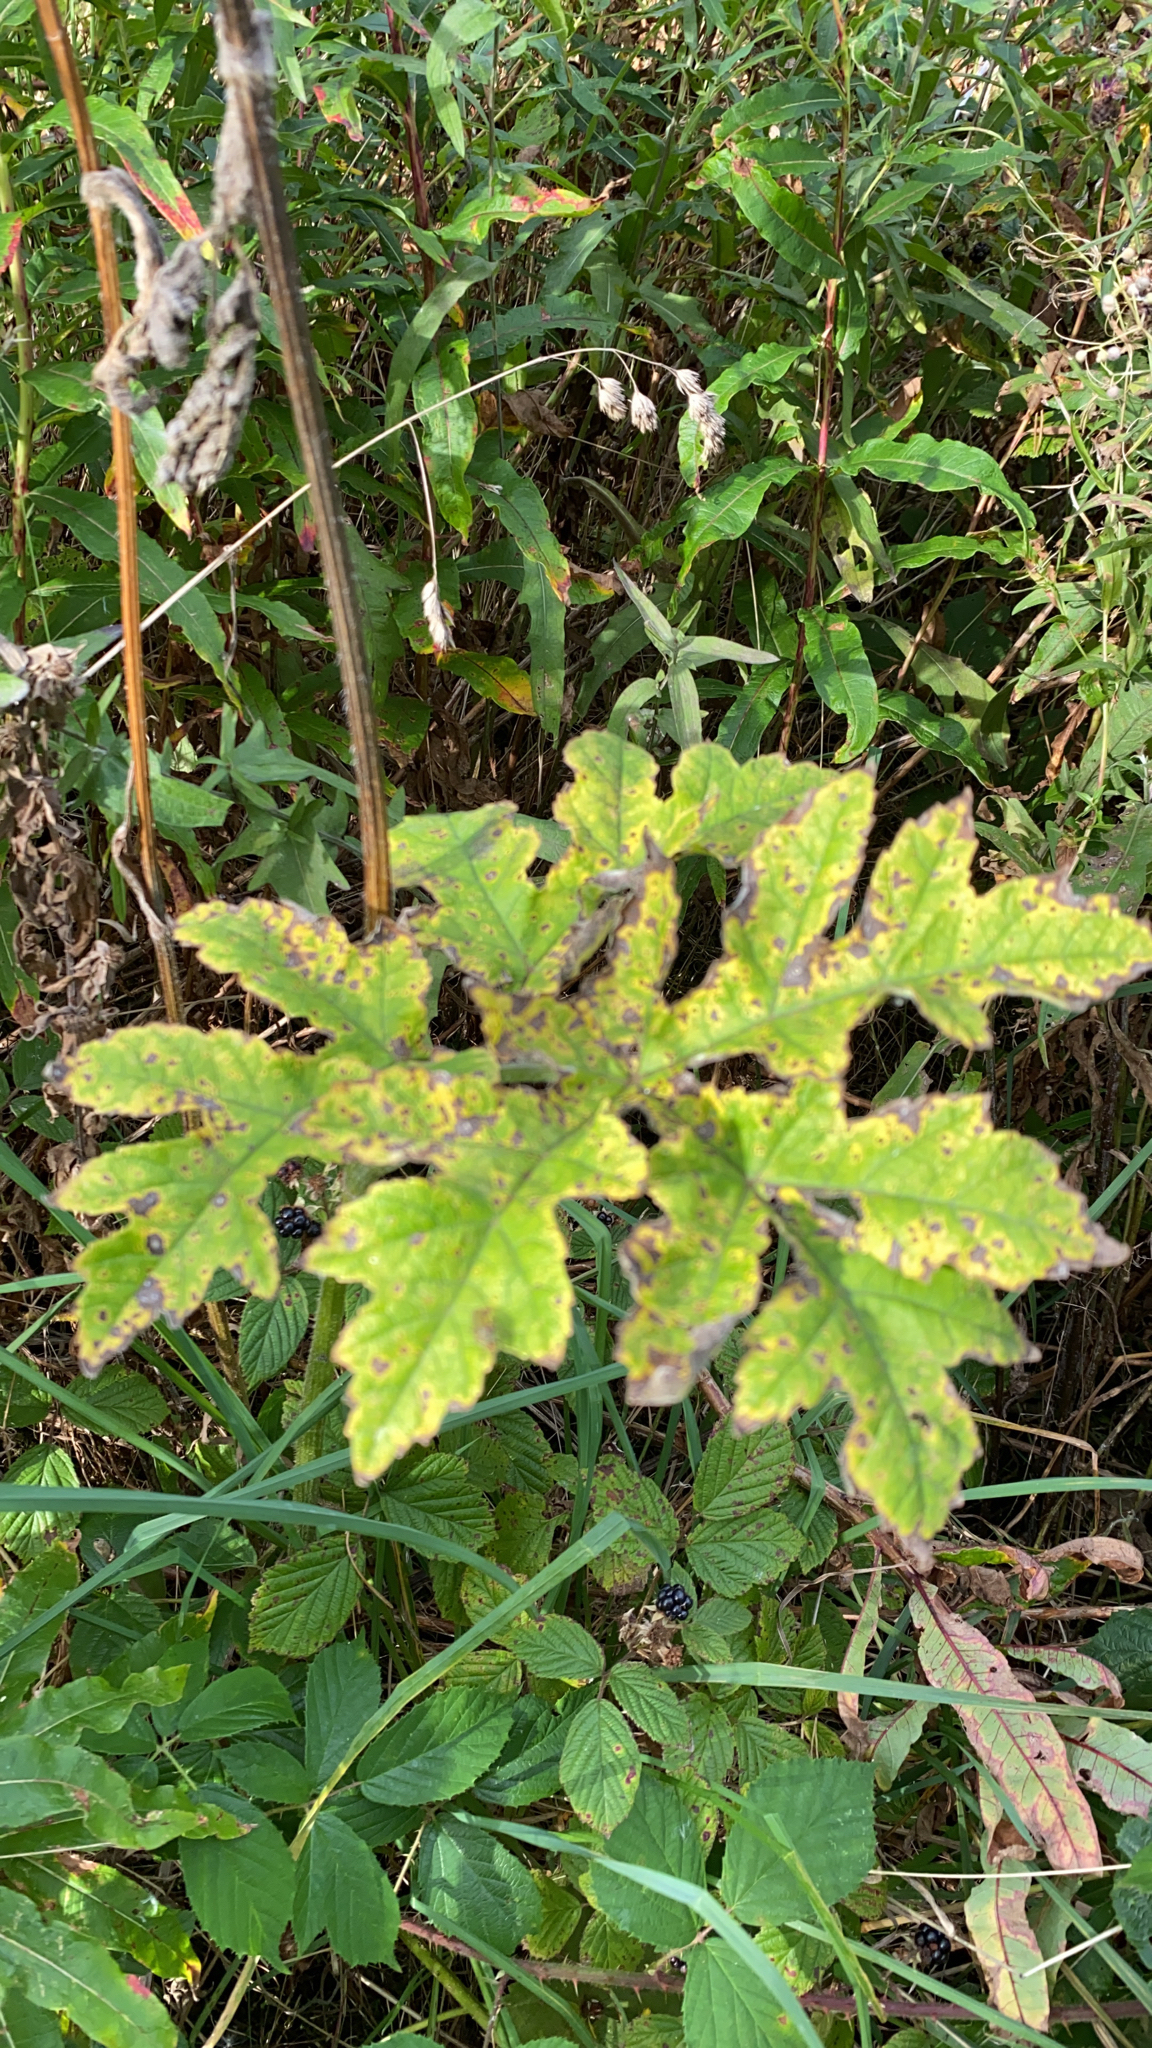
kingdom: Plantae
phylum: Tracheophyta
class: Magnoliopsida
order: Apiales
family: Apiaceae
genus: Heracleum
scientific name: Heracleum sphondylium
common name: Hogweed
